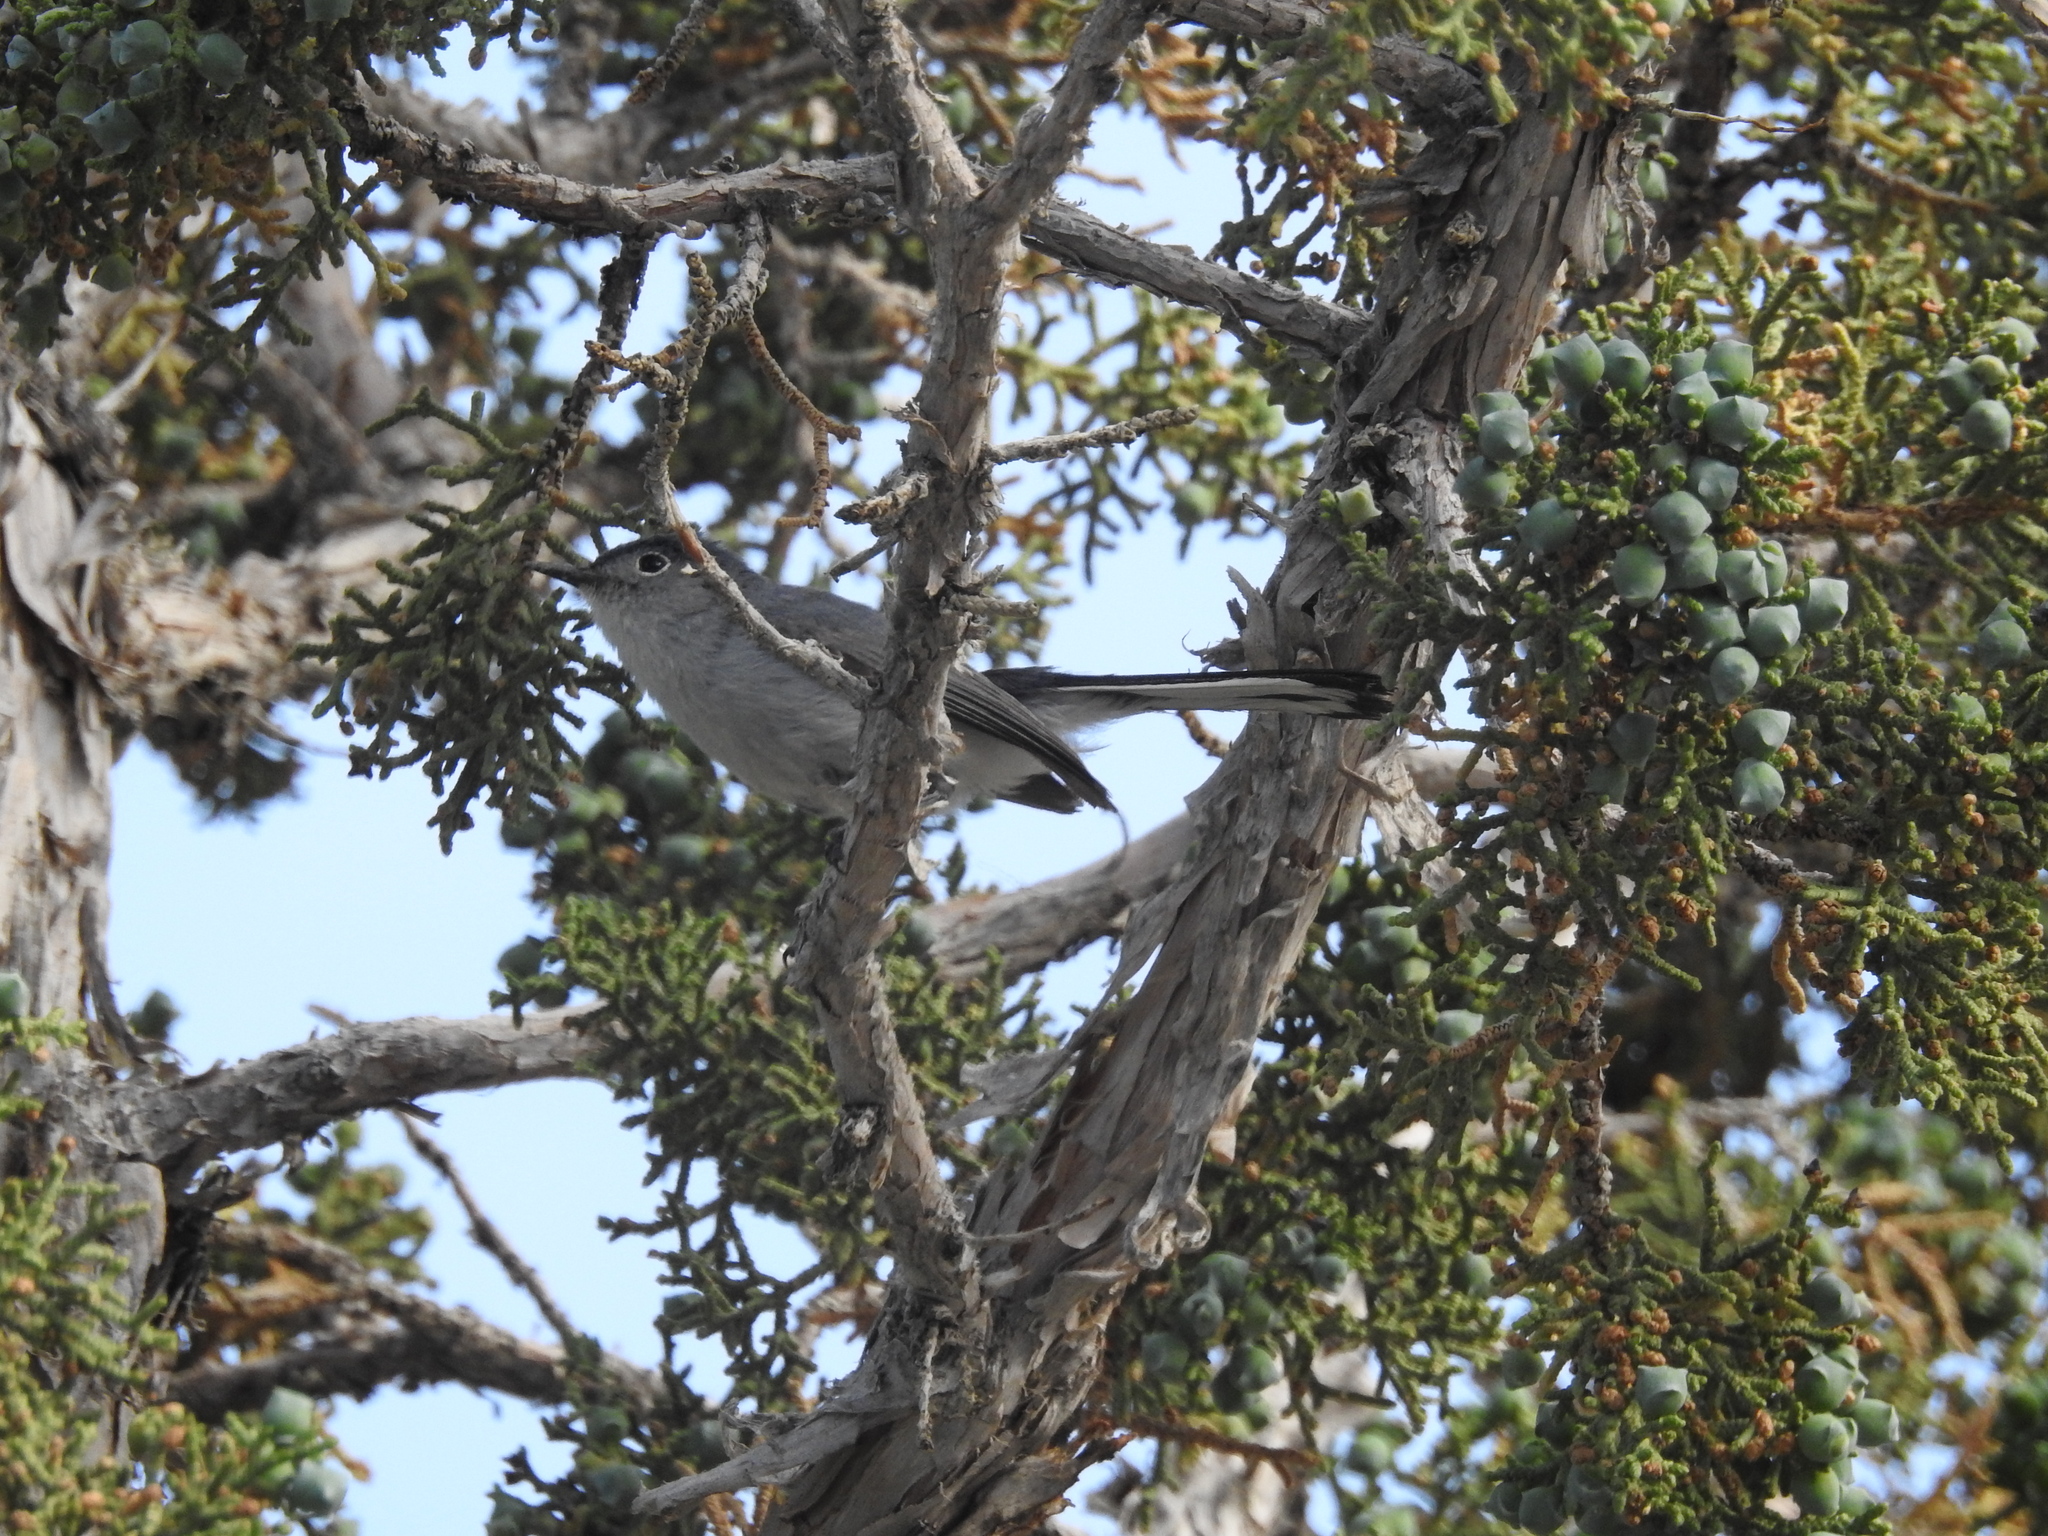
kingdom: Animalia
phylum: Chordata
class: Aves
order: Passeriformes
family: Polioptilidae
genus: Polioptila
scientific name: Polioptila caerulea
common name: Blue-gray gnatcatcher
